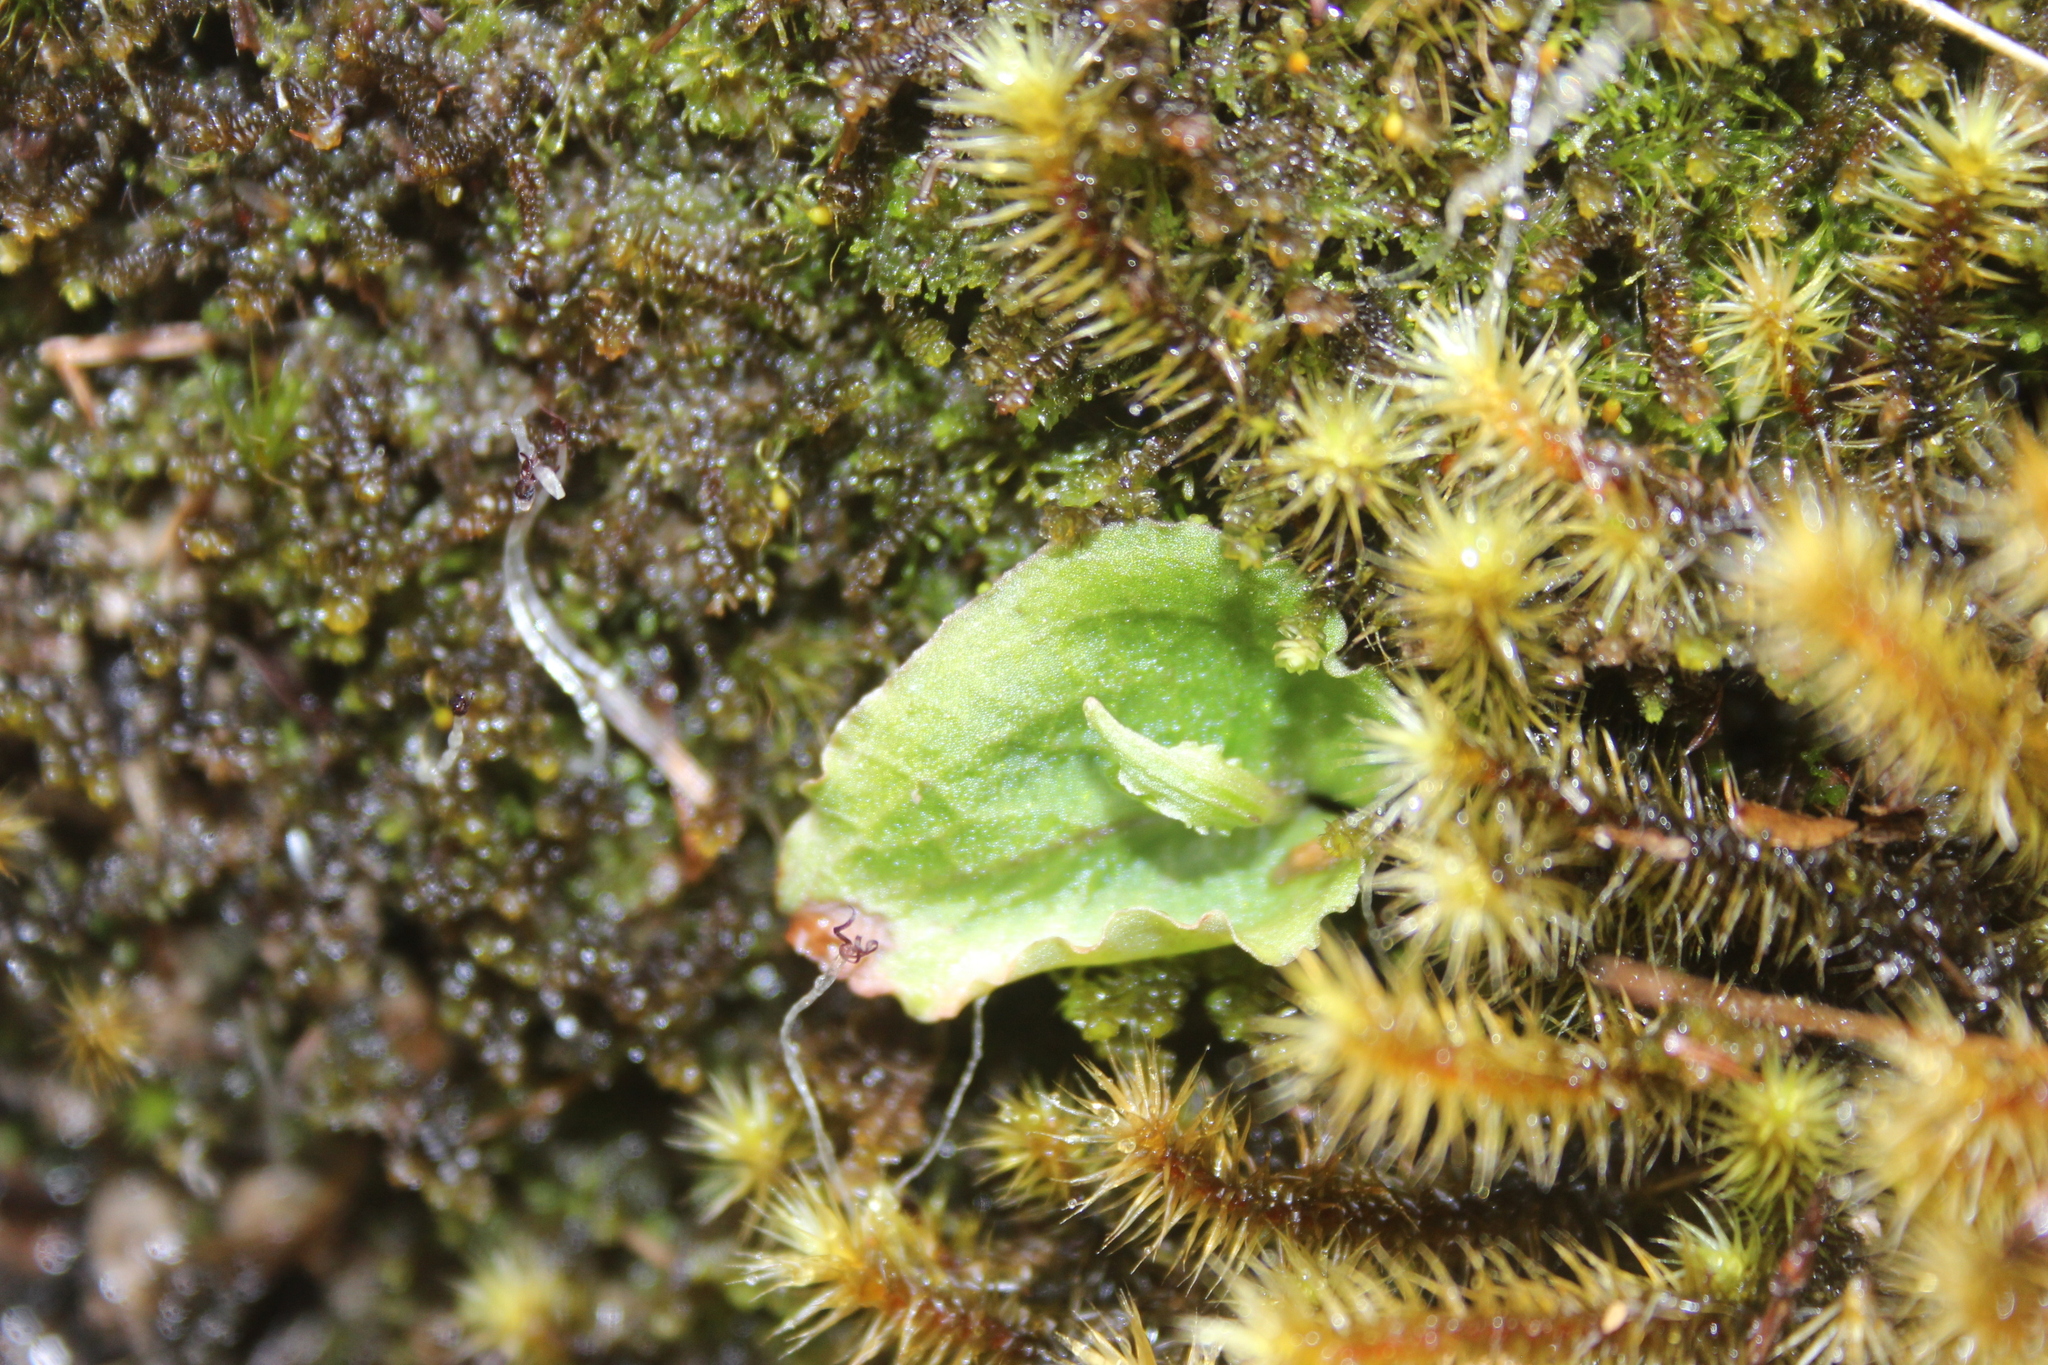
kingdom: Plantae
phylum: Tracheophyta
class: Liliopsida
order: Asparagales
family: Orchidaceae
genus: Corybas
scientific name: Corybas oblongus
